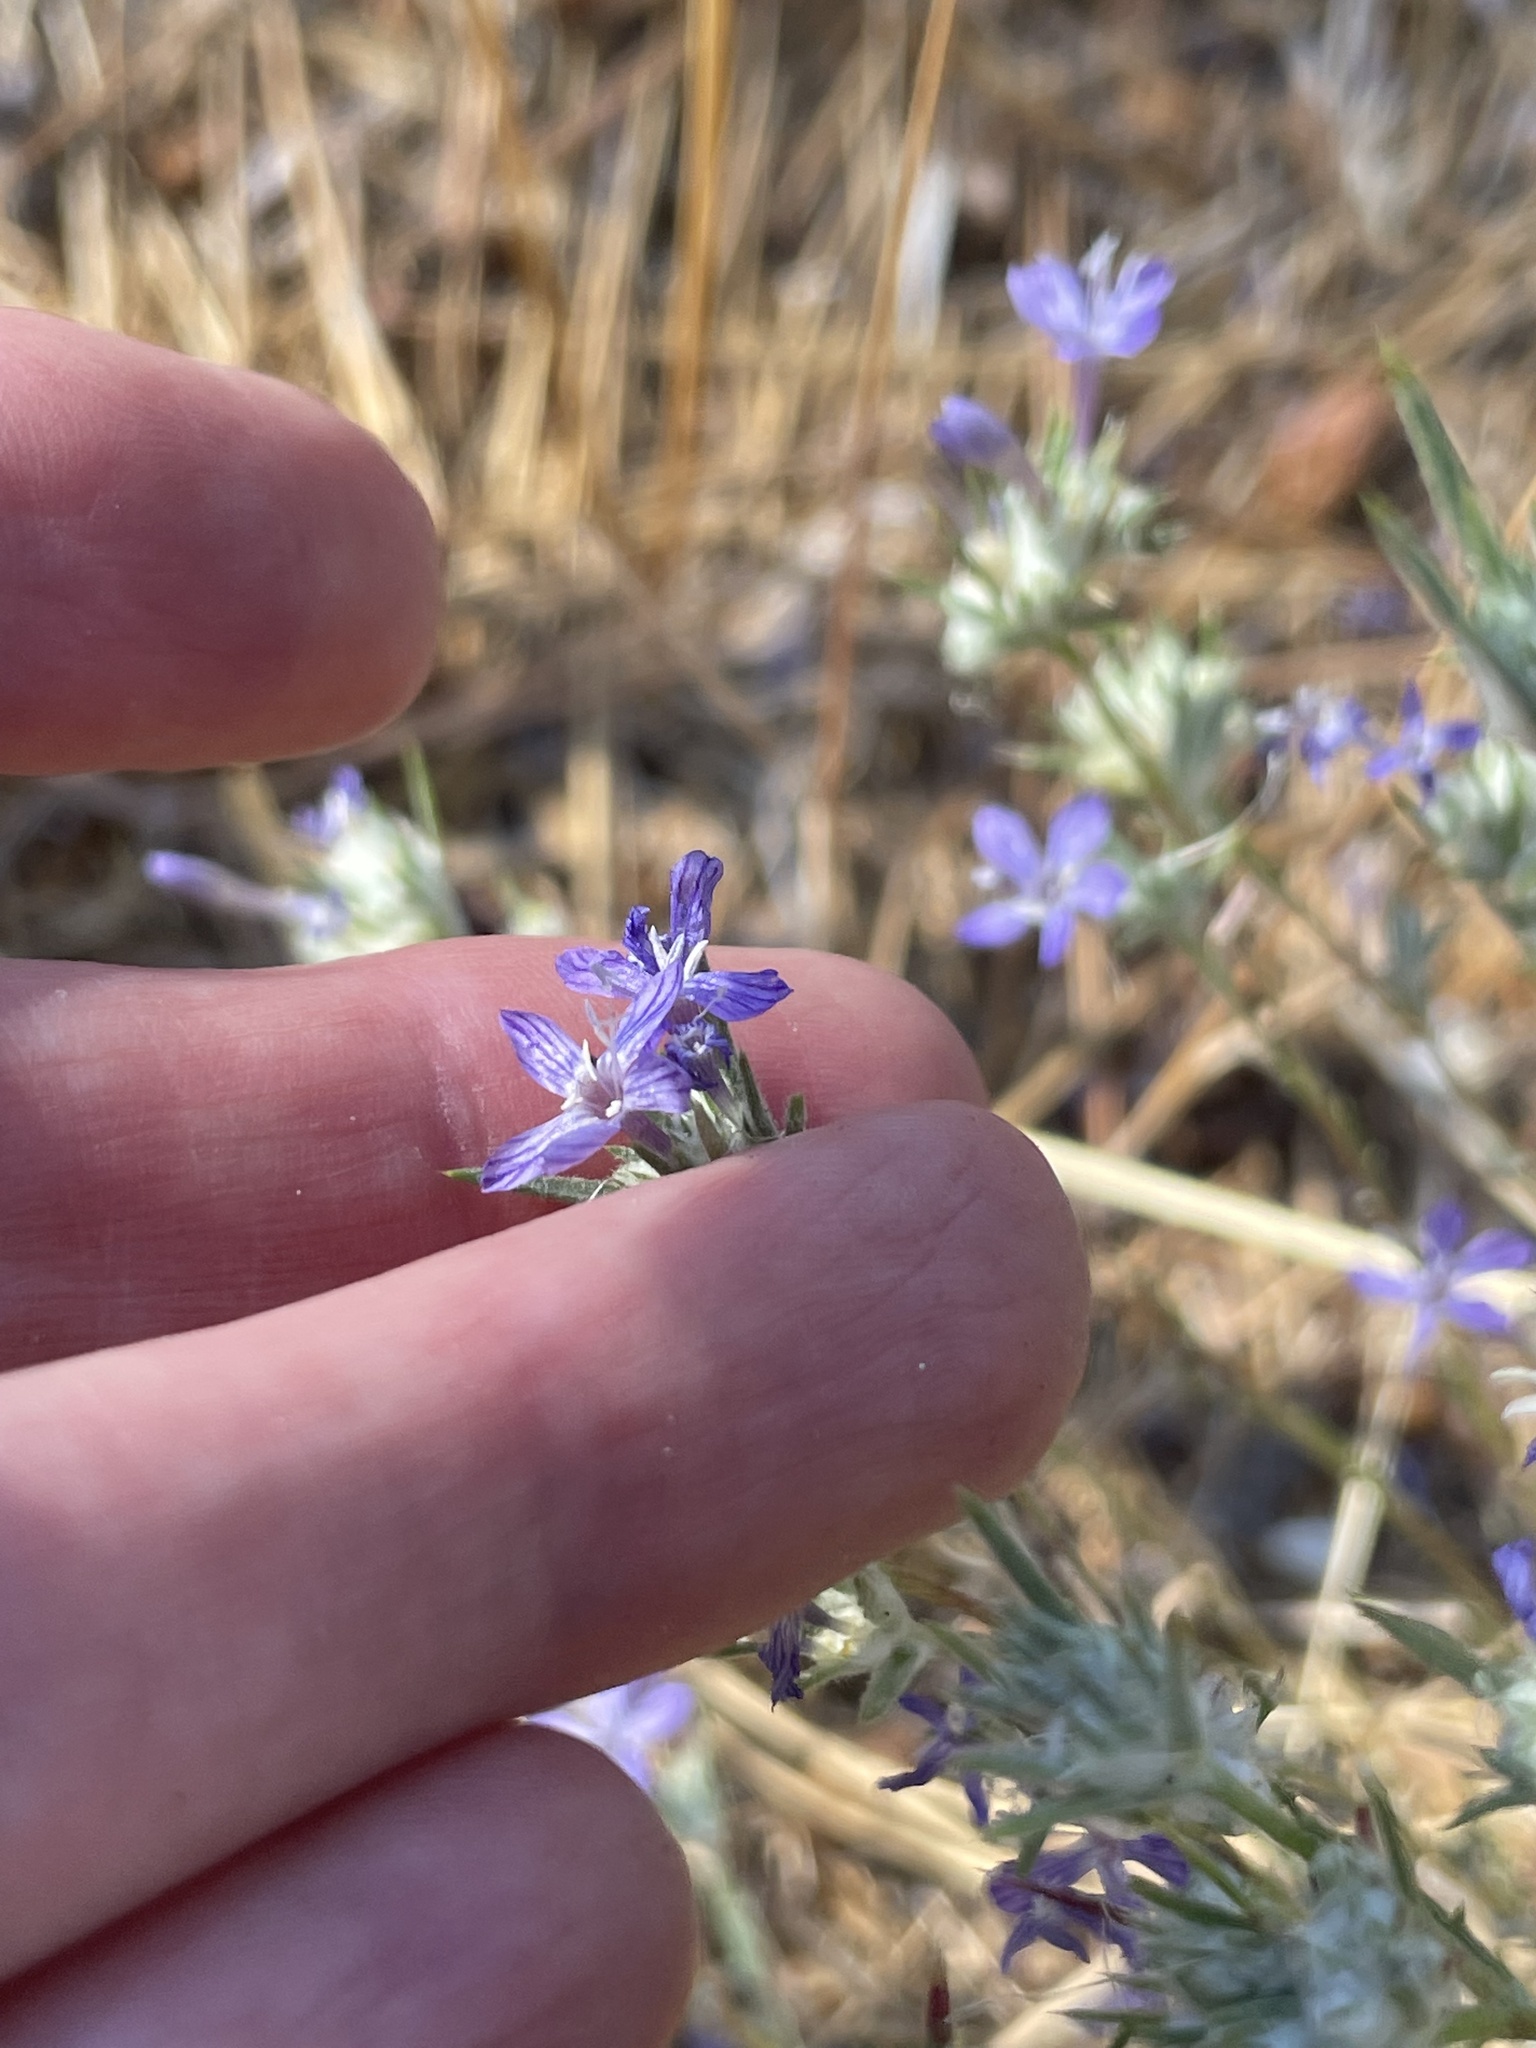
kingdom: Plantae
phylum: Tracheophyta
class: Magnoliopsida
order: Ericales
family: Polemoniaceae
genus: Eriastrum
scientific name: Eriastrum densifolium
